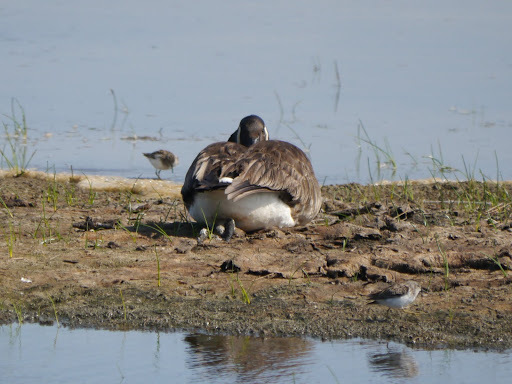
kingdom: Animalia
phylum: Chordata
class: Aves
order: Anseriformes
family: Anatidae
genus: Branta
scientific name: Branta canadensis
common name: Canada goose
